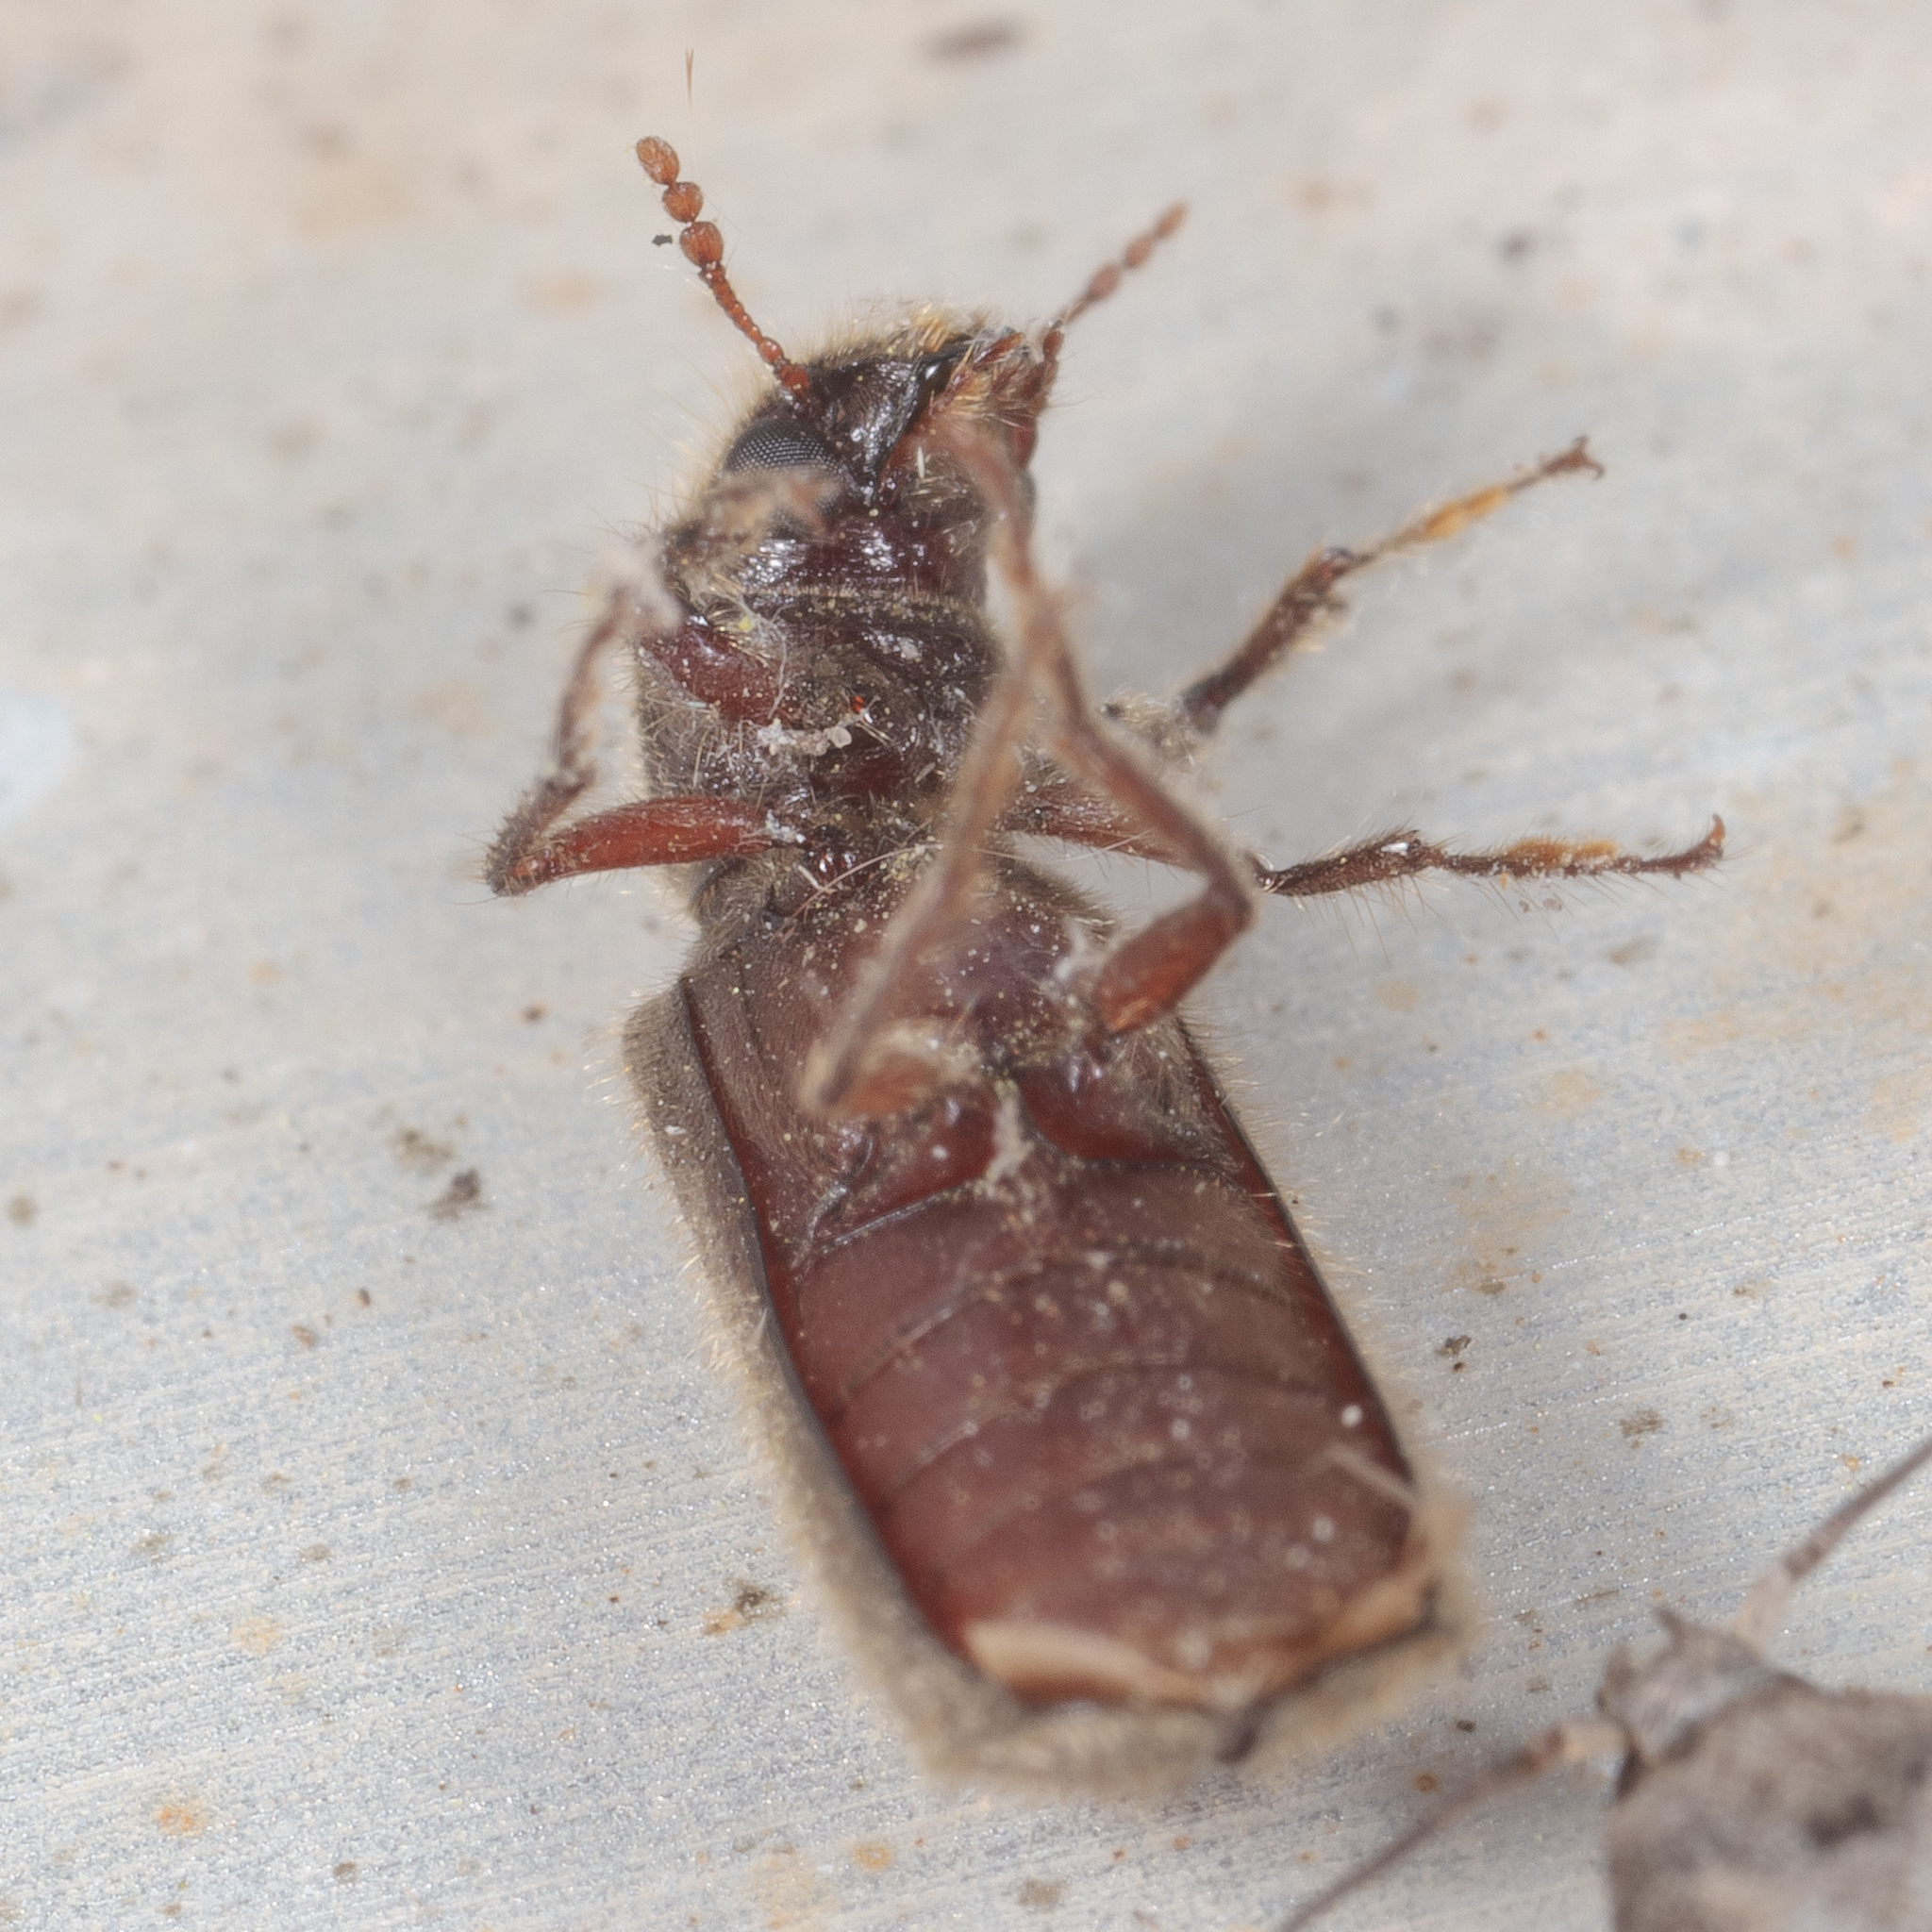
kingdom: Animalia
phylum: Arthropoda
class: Insecta
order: Coleoptera
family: Bostrichidae
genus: Melalgus
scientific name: Melalgus plicatus
